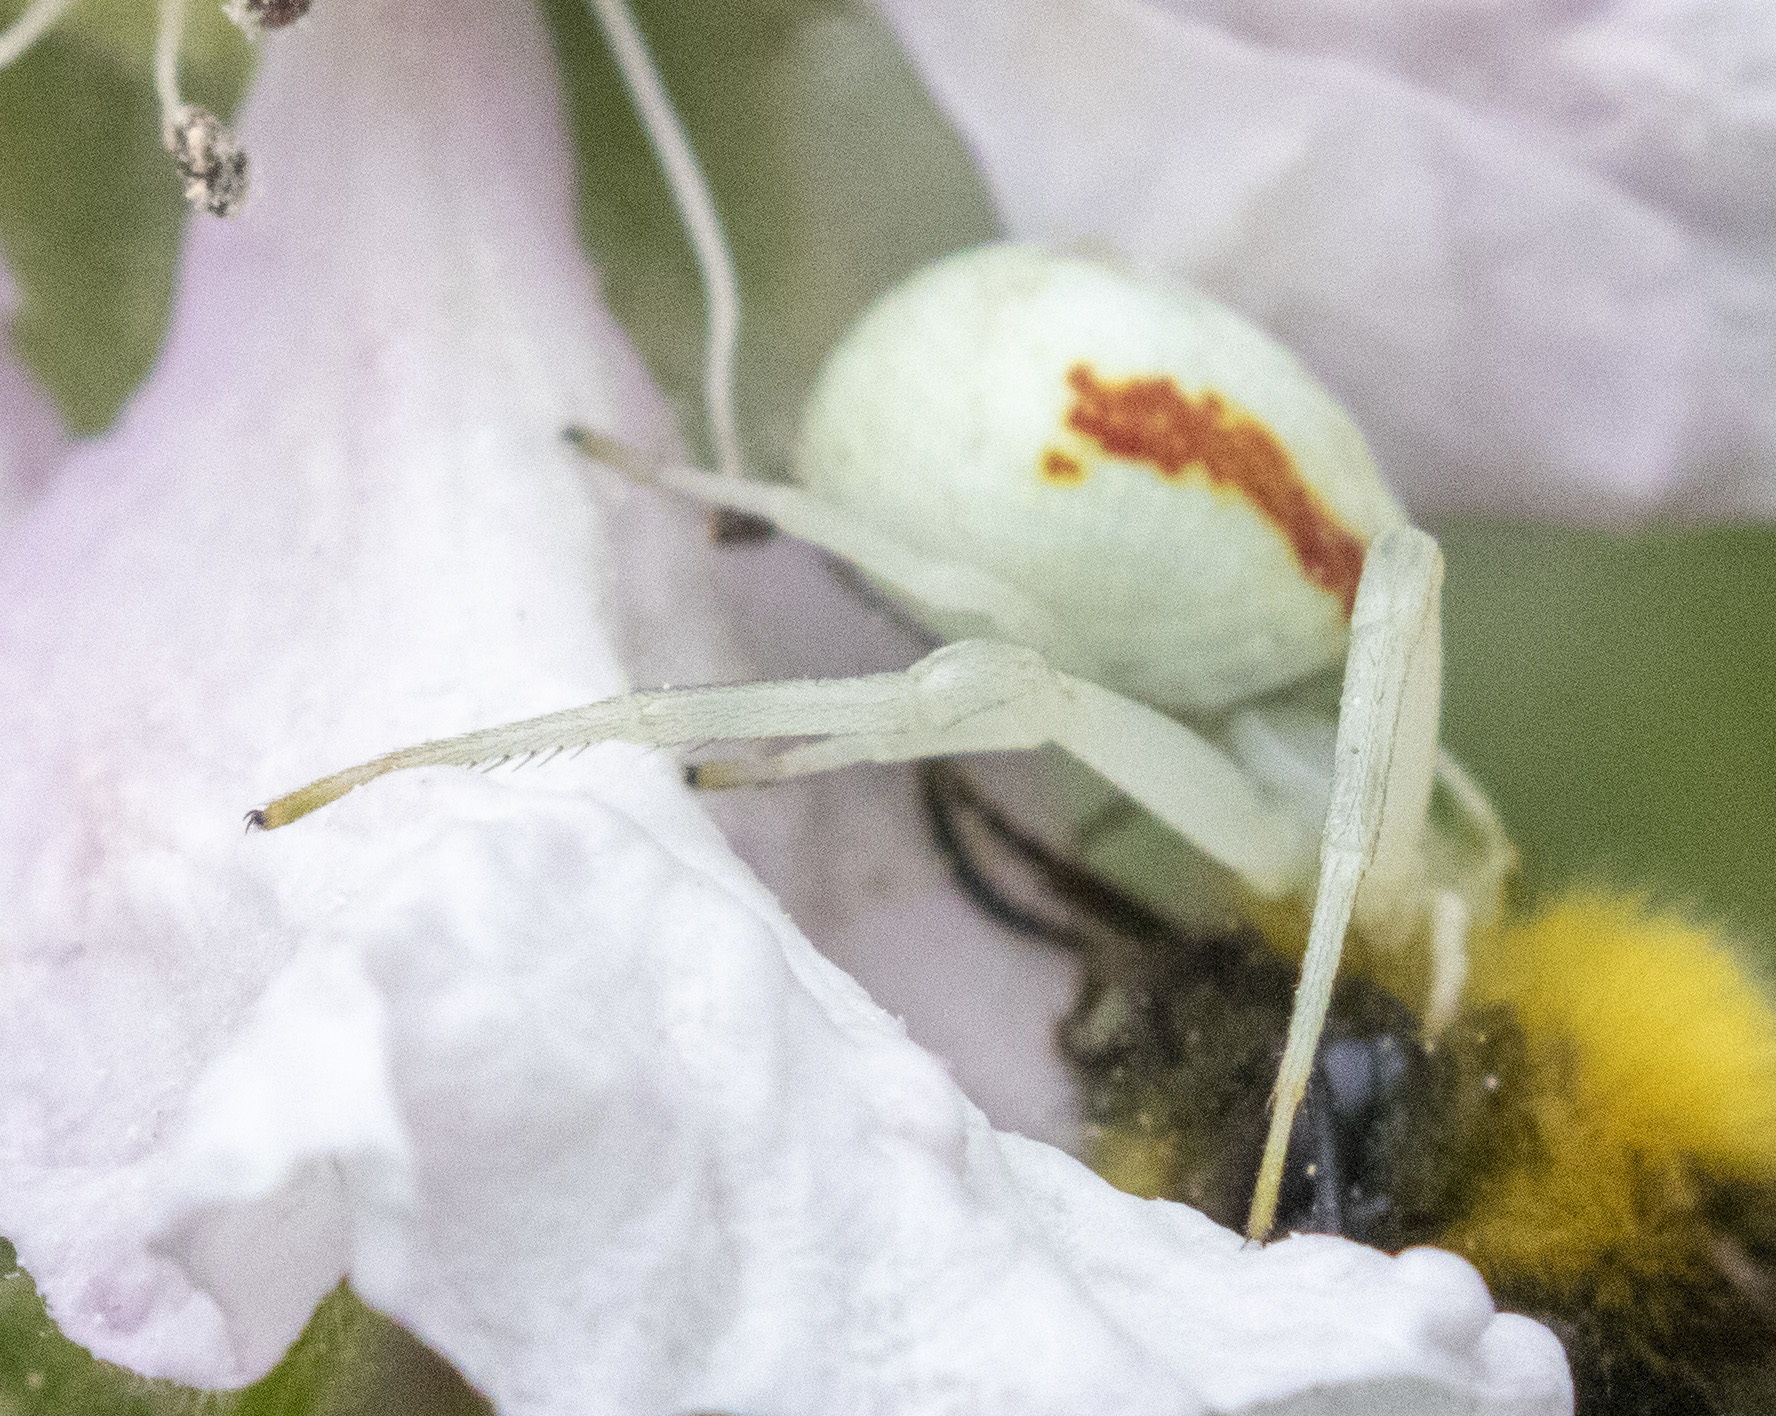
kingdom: Animalia
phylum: Arthropoda
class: Arachnida
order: Araneae
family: Thomisidae
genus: Misumena
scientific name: Misumena vatia
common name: Goldenrod crab spider
